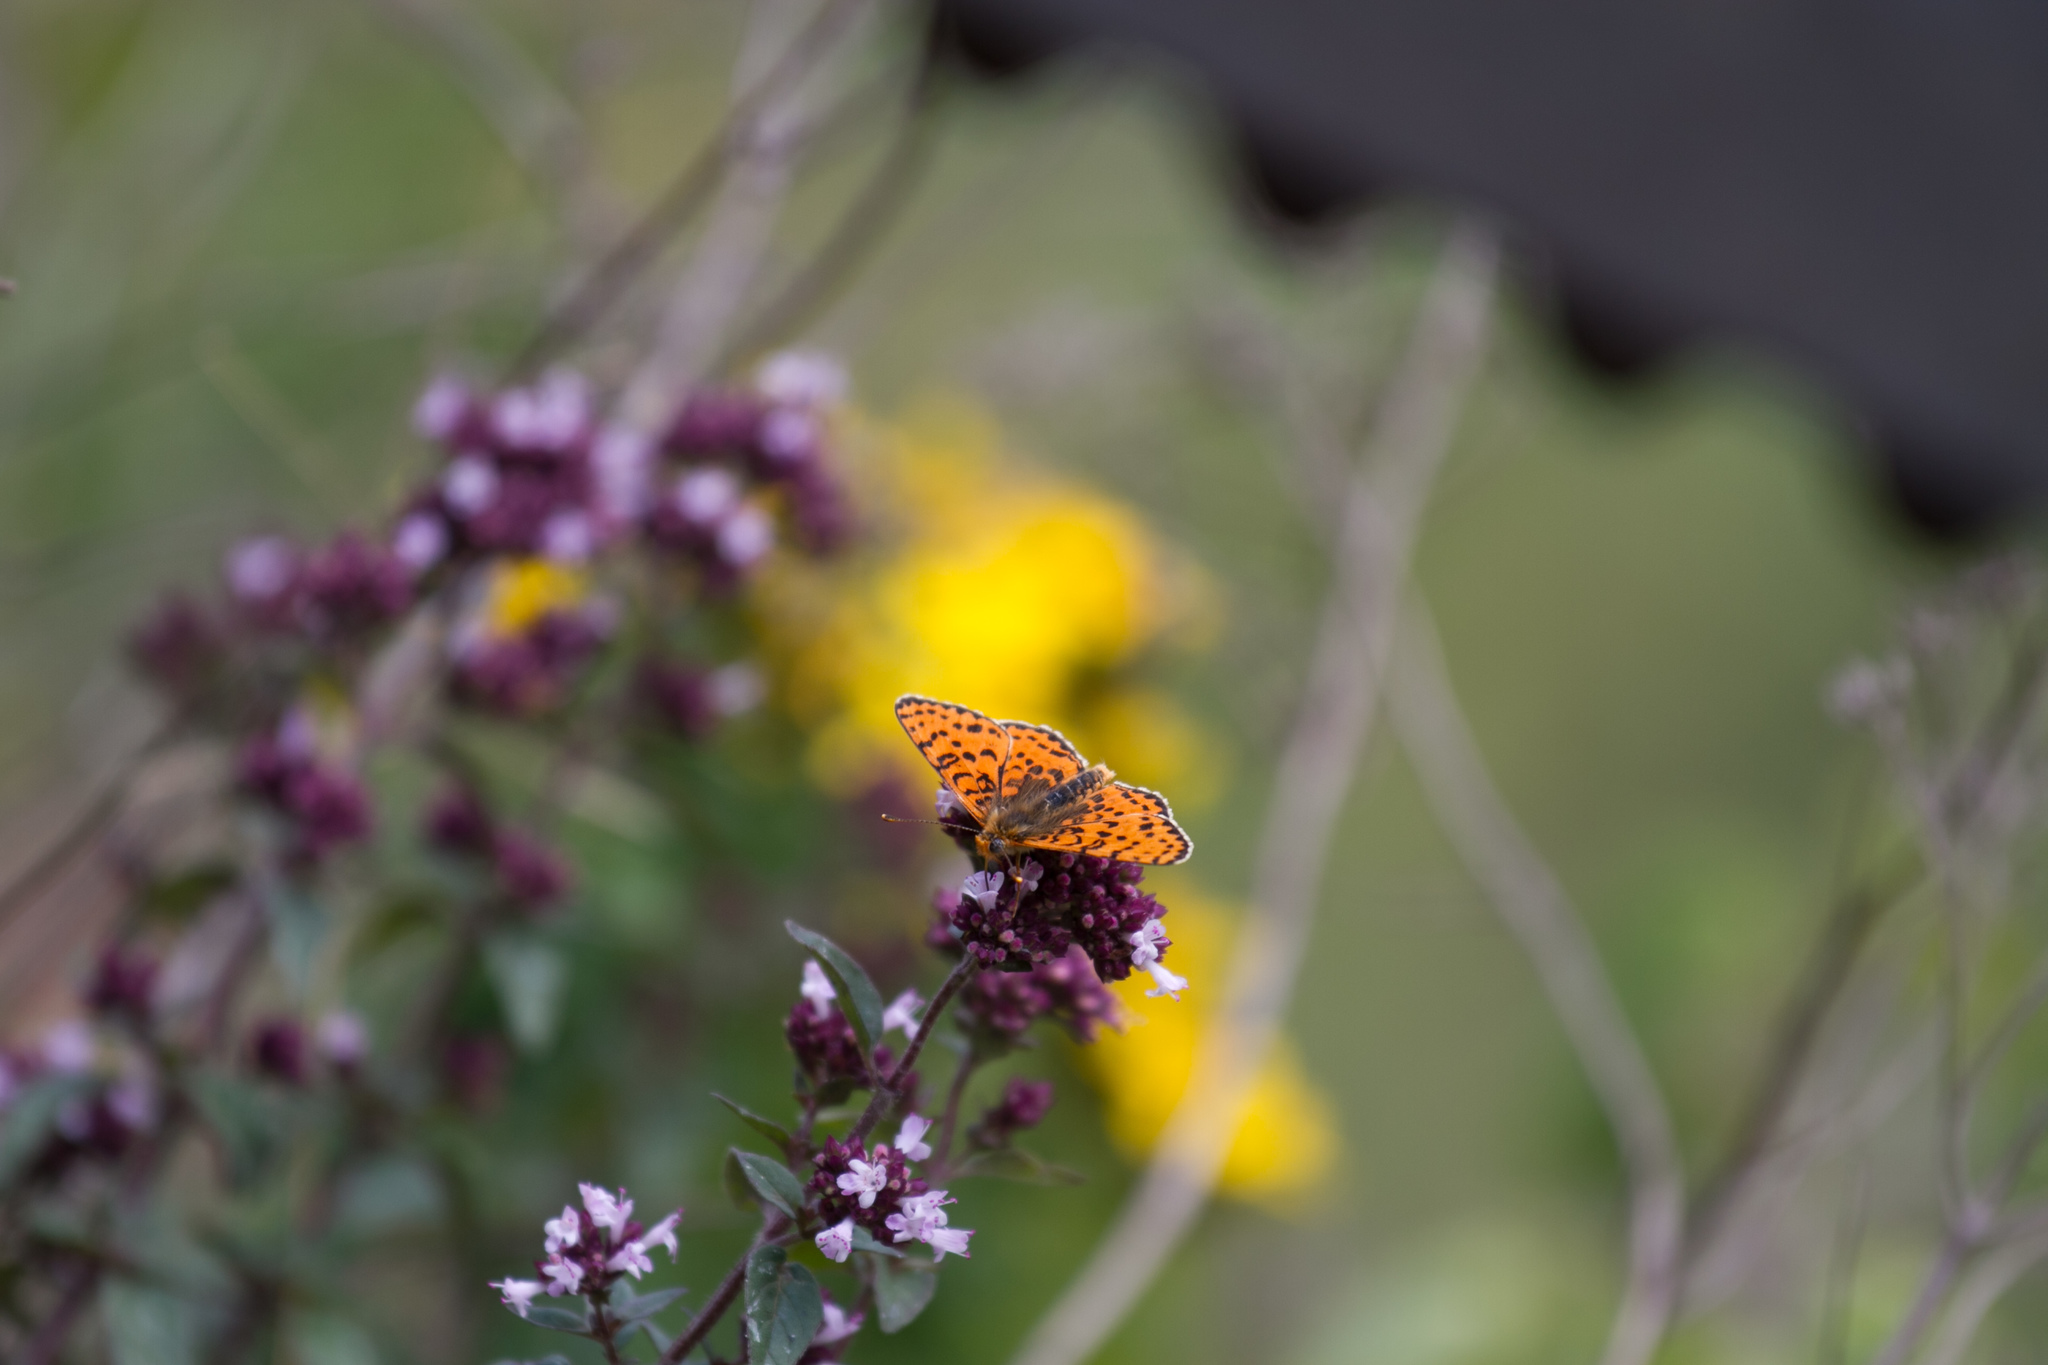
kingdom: Animalia
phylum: Arthropoda
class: Insecta
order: Lepidoptera
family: Nymphalidae
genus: Melitaea
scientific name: Melitaea didyma
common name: Spotted fritillary
